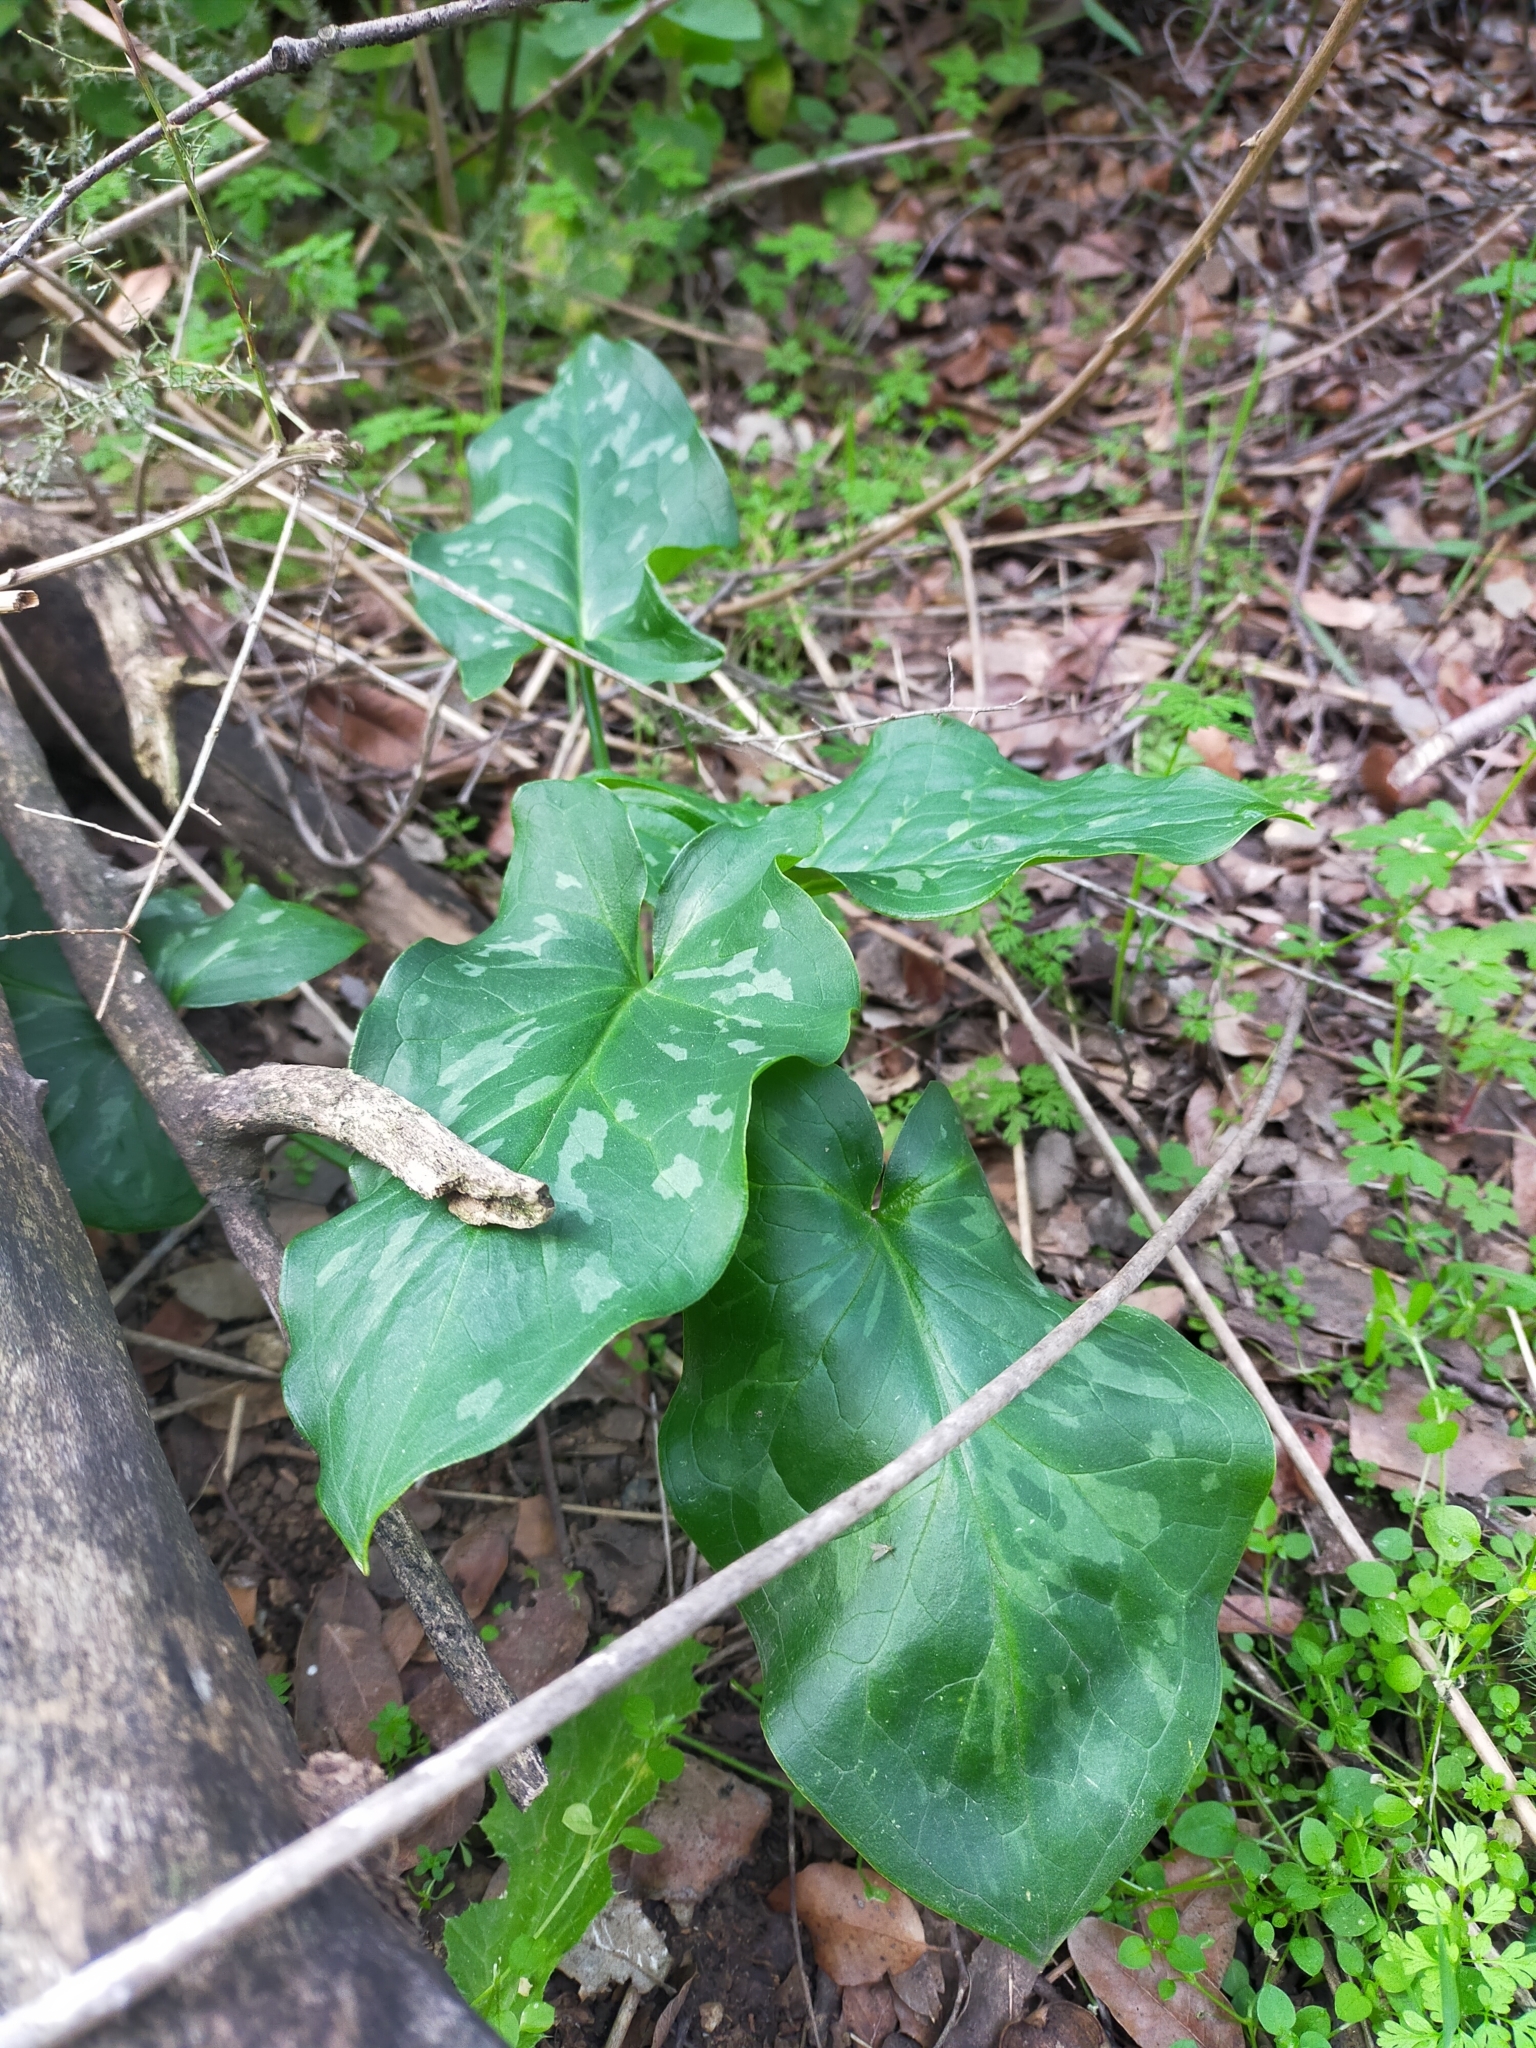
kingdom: Plantae
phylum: Tracheophyta
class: Liliopsida
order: Alismatales
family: Araceae
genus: Arum
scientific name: Arum italicum
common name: Italian lords-and-ladies
